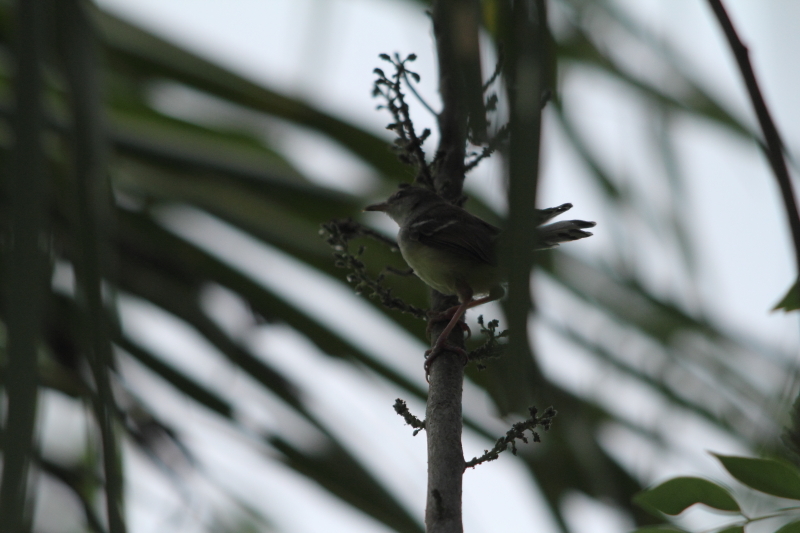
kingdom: Animalia
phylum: Chordata
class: Aves
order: Passeriformes
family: Cisticolidae
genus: Prinia
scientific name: Prinia familiaris
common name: Bar-winged prinia
